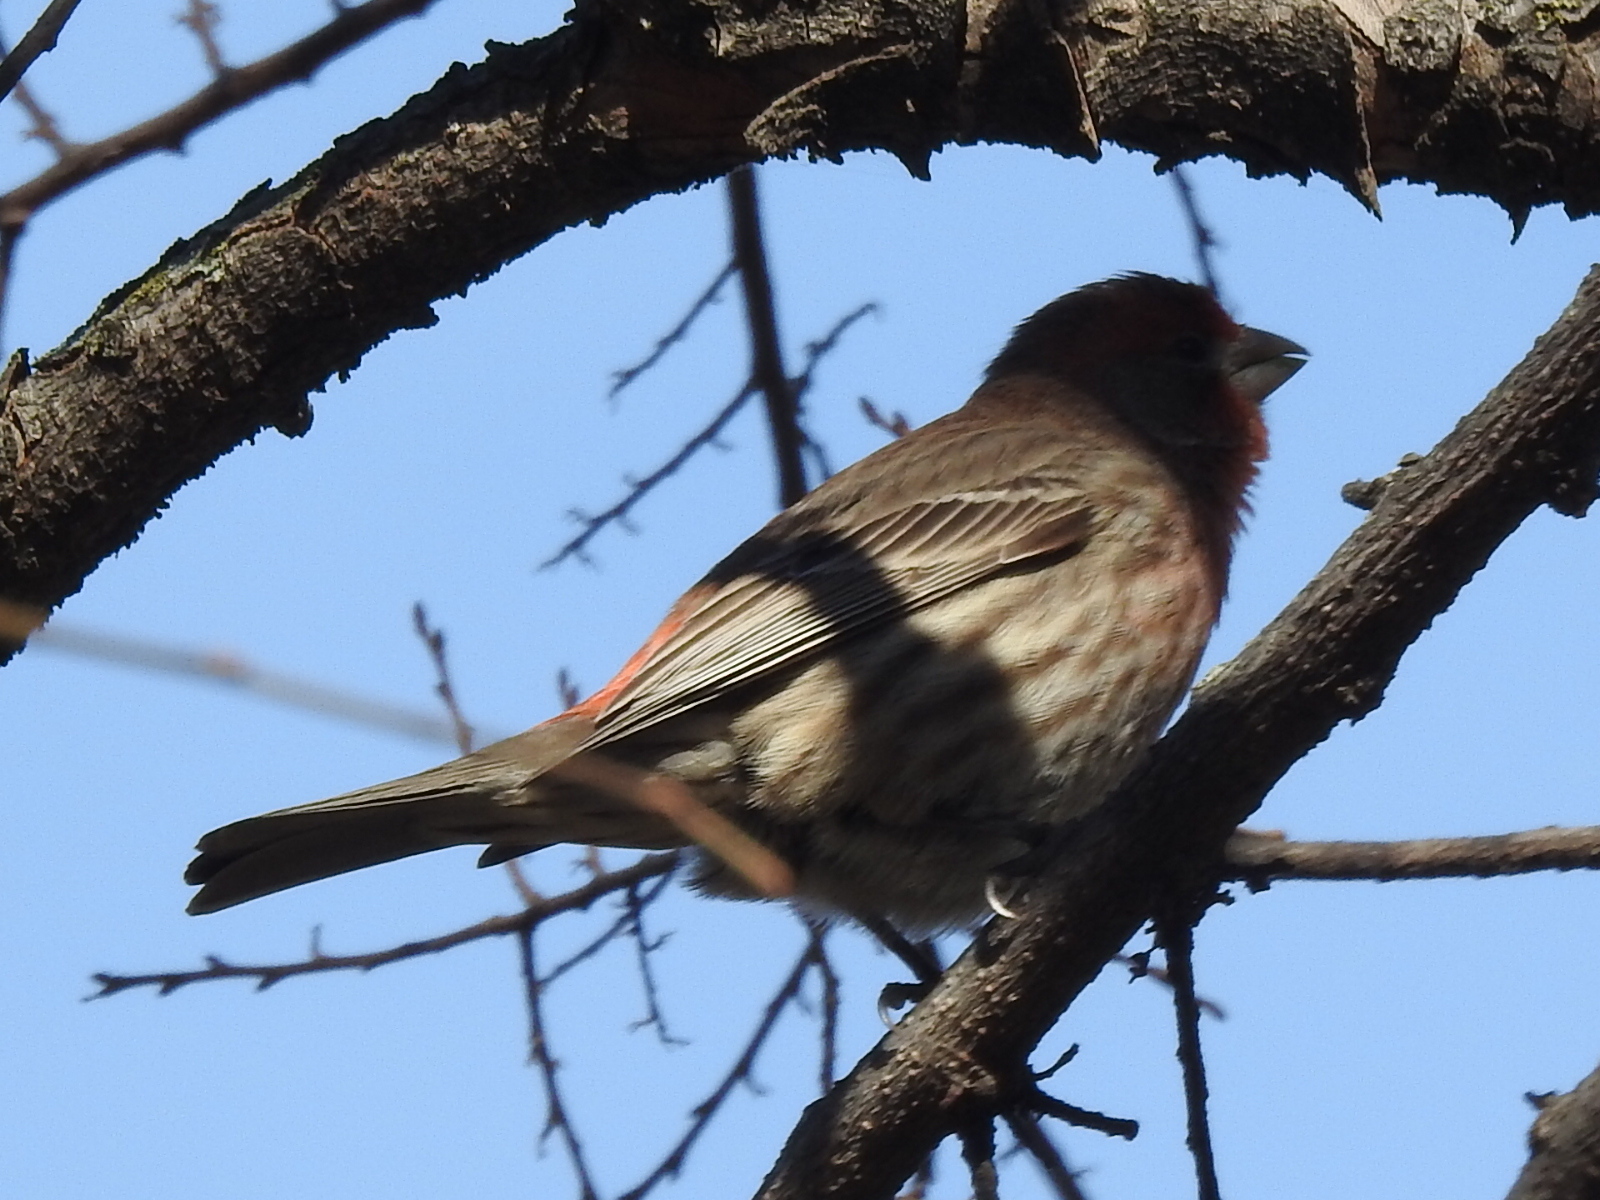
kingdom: Animalia
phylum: Chordata
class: Aves
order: Passeriformes
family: Fringillidae
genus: Haemorhous
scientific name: Haemorhous mexicanus
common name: House finch
